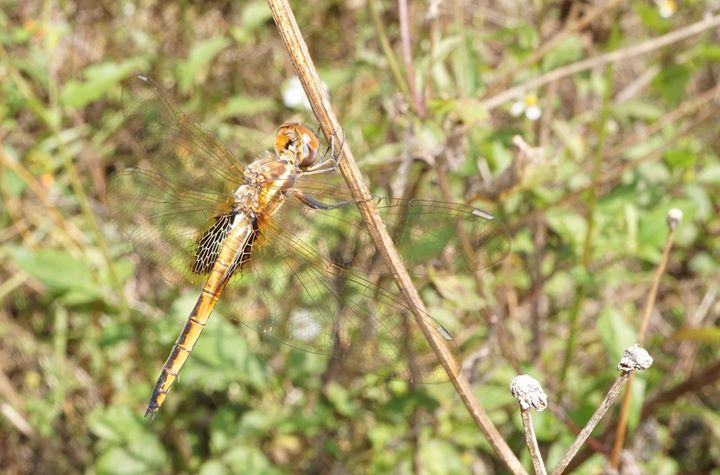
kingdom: Animalia
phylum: Arthropoda
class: Insecta
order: Odonata
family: Libellulidae
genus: Miathyria
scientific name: Miathyria marcella
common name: Hyacinth glider
